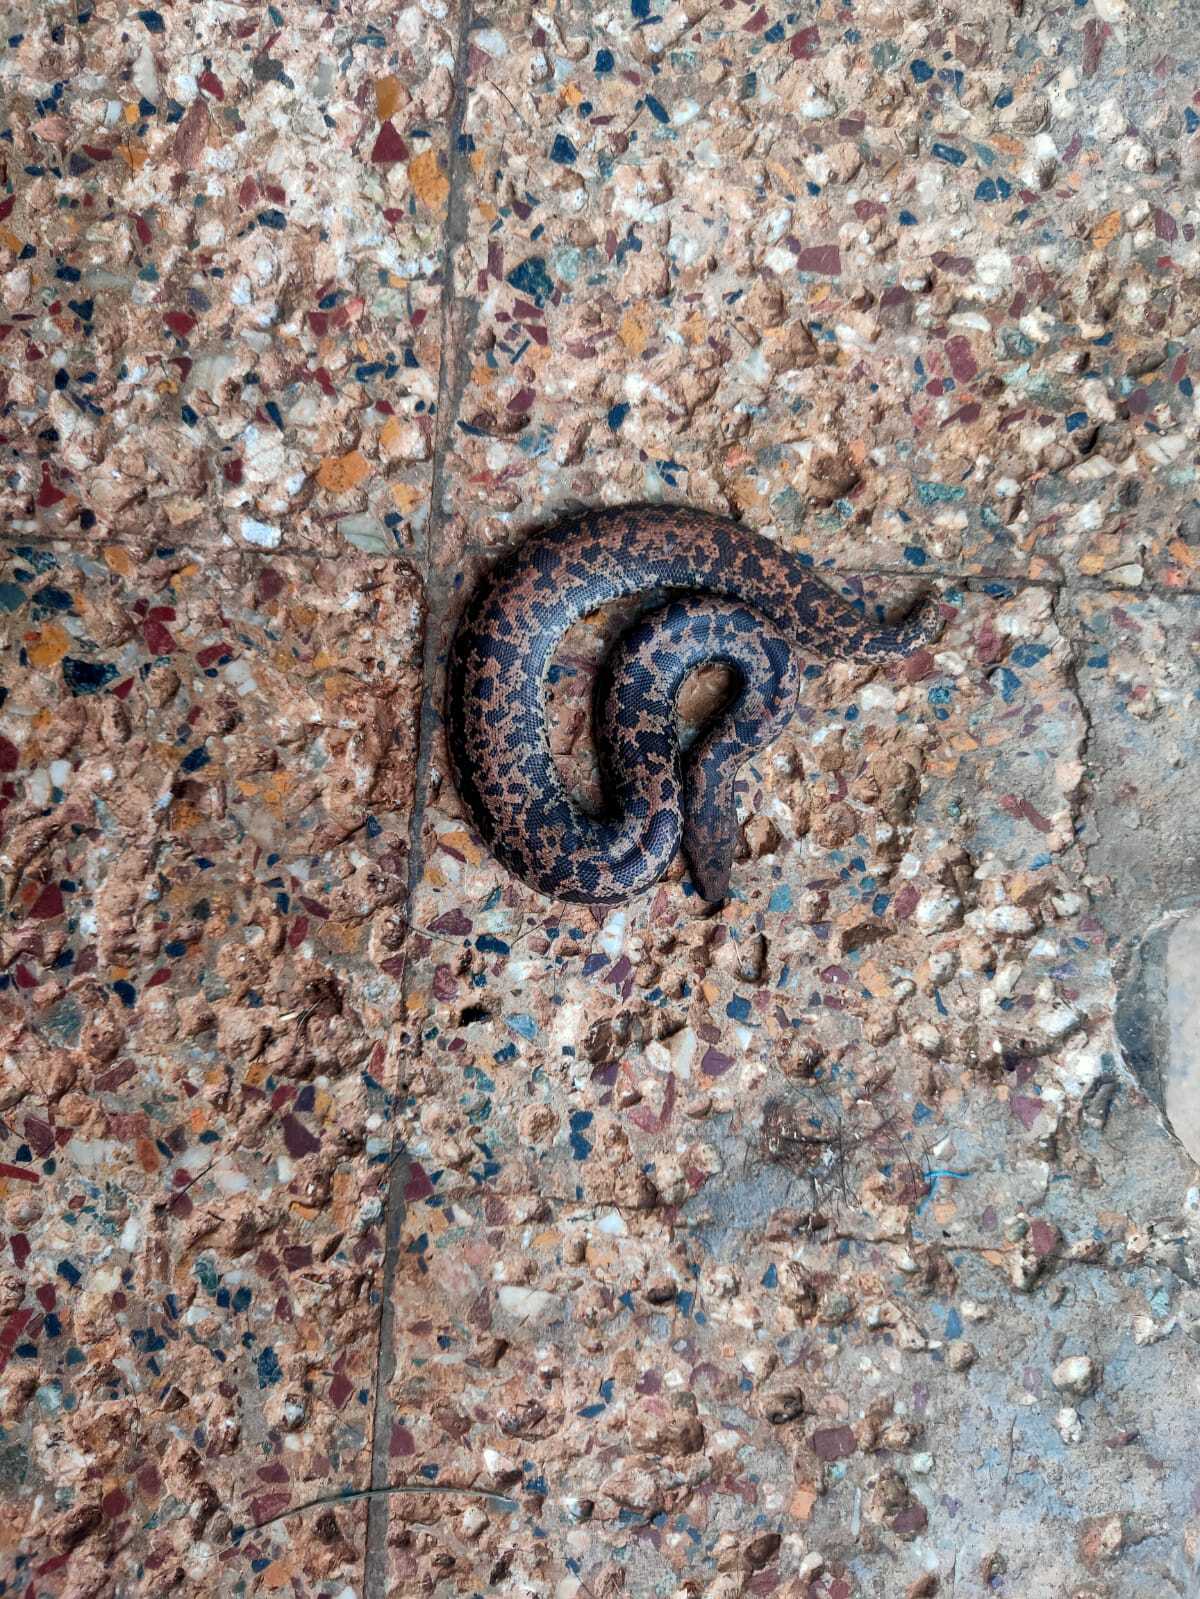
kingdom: Animalia
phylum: Chordata
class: Squamata
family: Boidae
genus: Eryx
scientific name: Eryx conicus
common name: Rough-tailed sand boa
